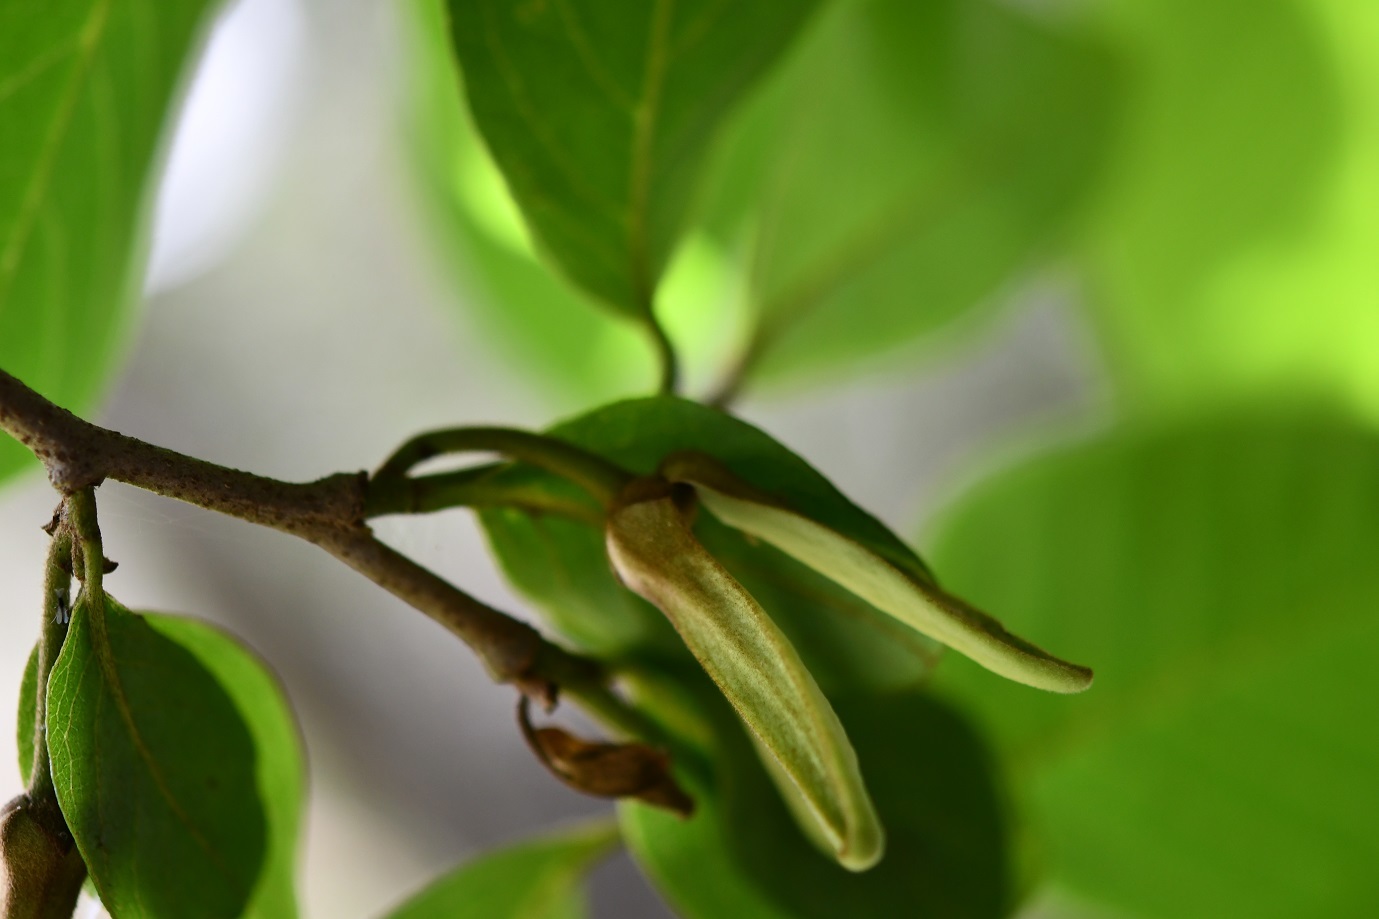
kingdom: Plantae
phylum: Tracheophyta
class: Magnoliopsida
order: Magnoliales
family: Annonaceae
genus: Annona
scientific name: Annona cherimola
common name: Cherimoya
